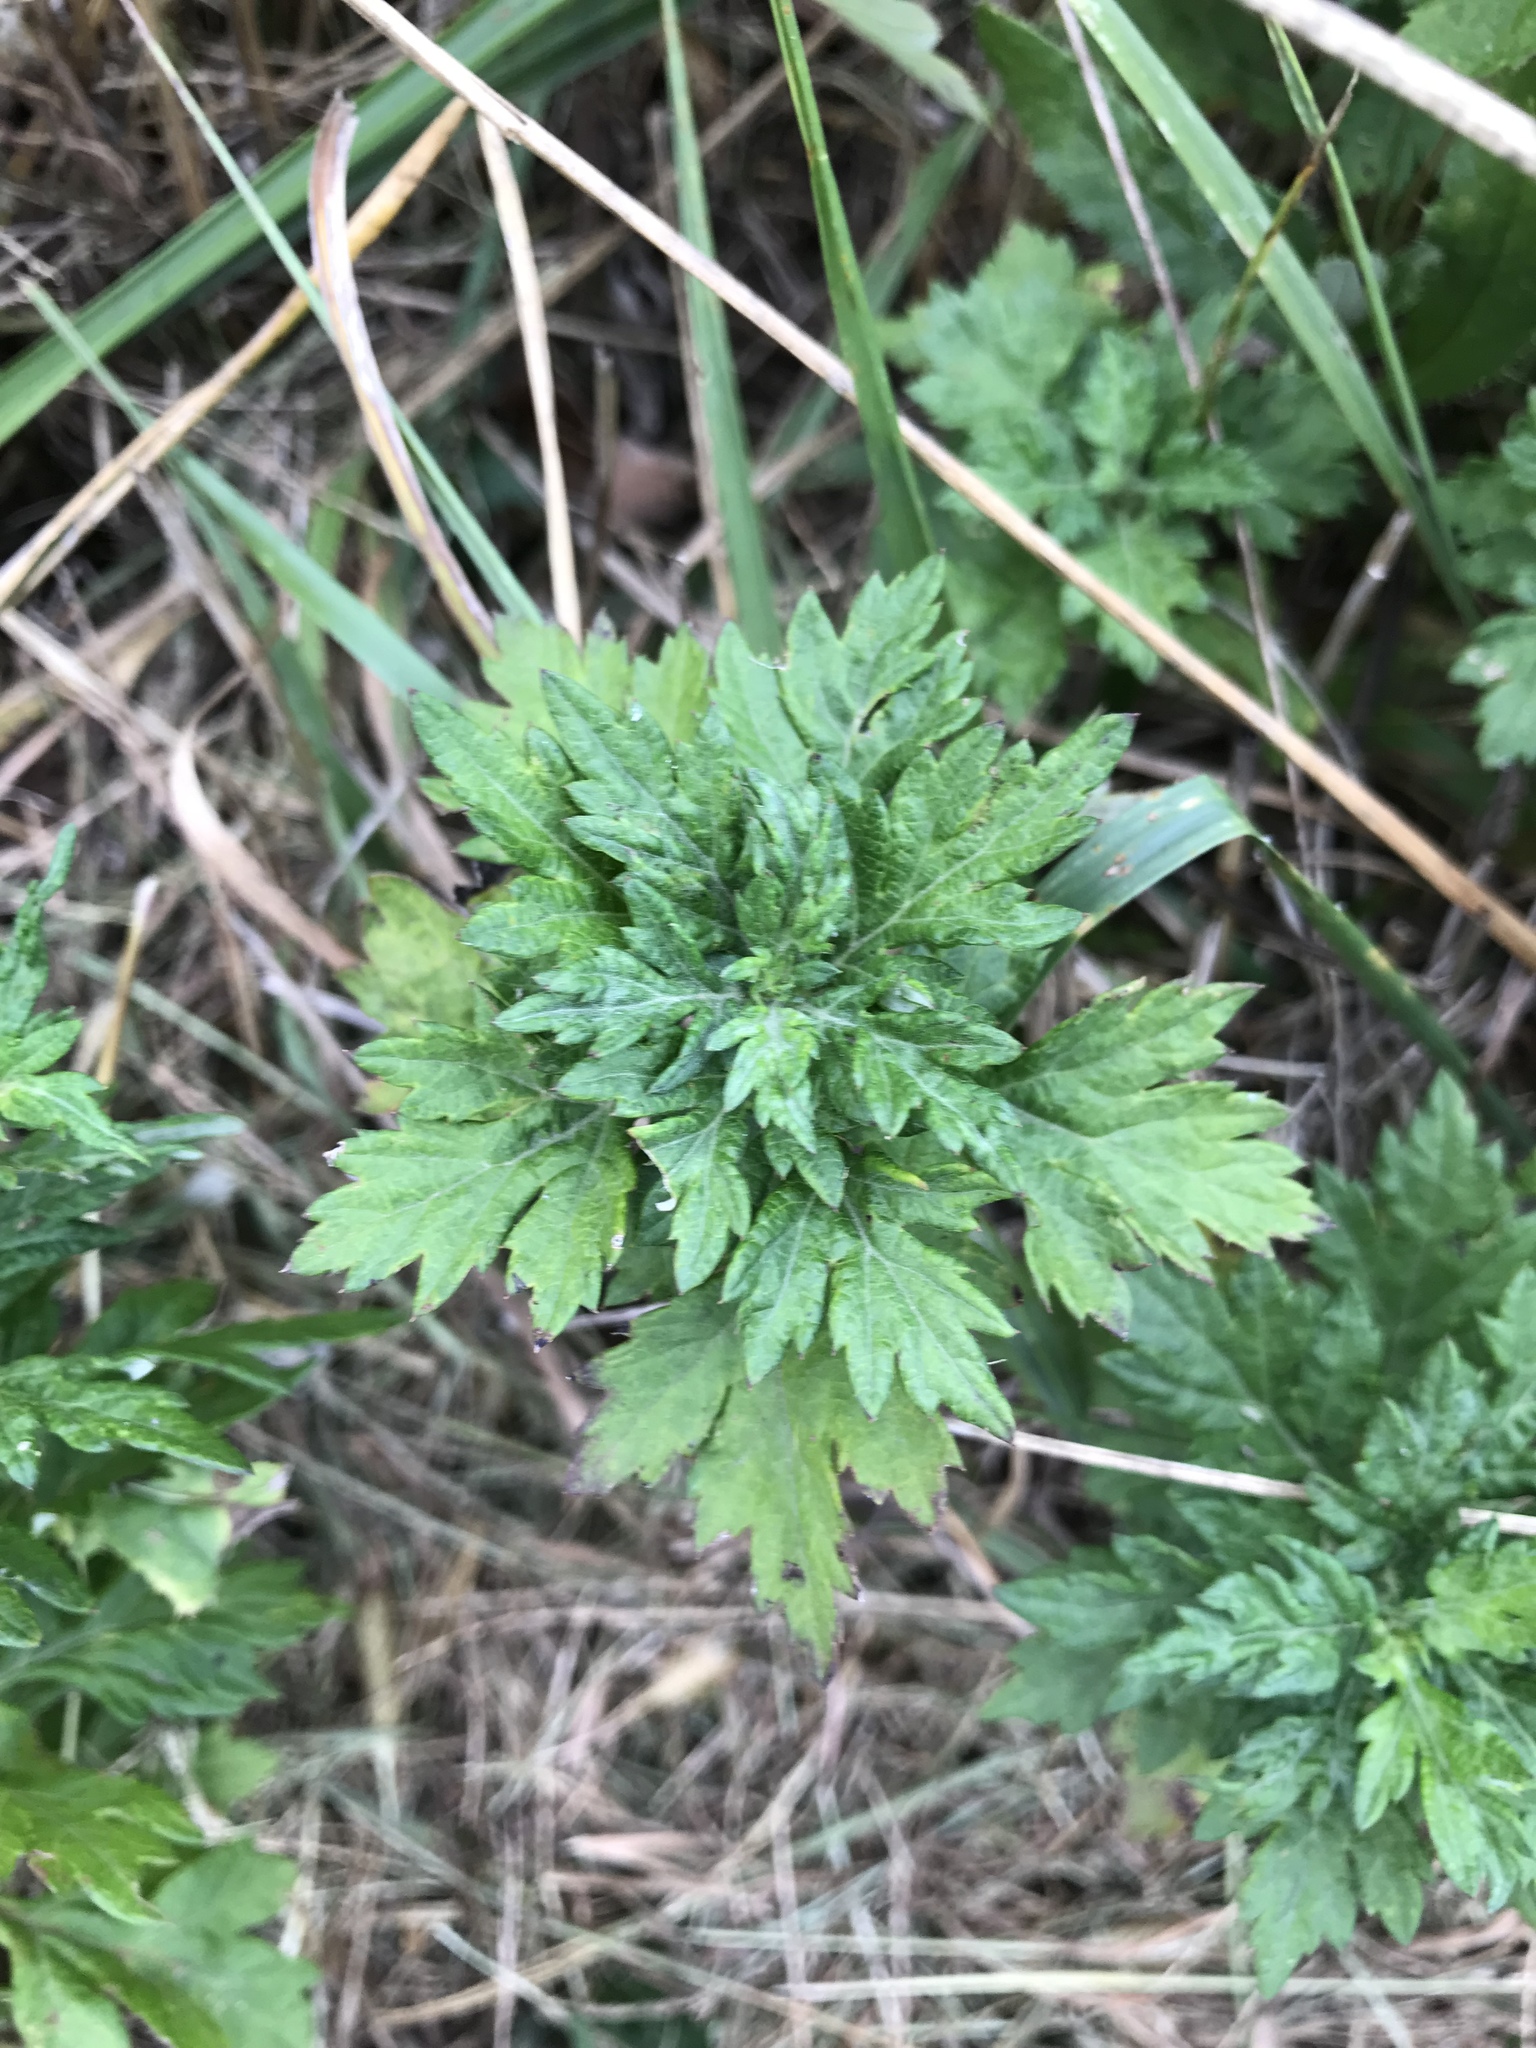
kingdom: Plantae
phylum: Tracheophyta
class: Magnoliopsida
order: Asterales
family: Asteraceae
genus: Artemisia
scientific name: Artemisia vulgaris
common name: Mugwort
